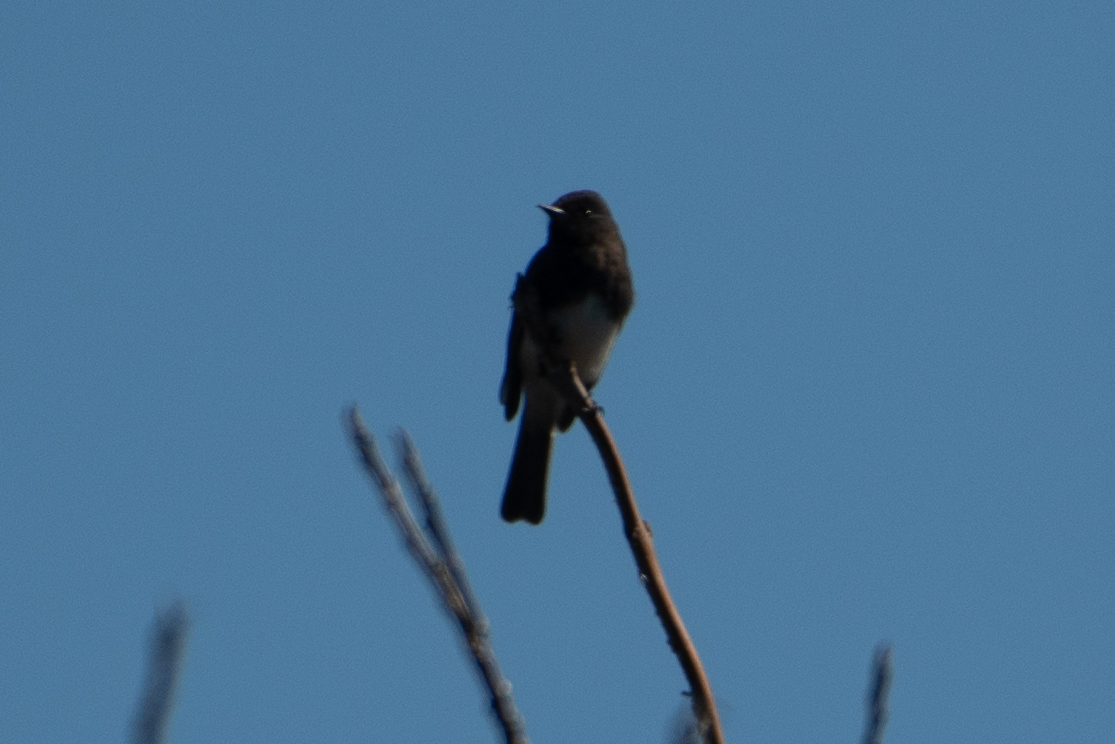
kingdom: Animalia
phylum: Chordata
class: Aves
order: Passeriformes
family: Tyrannidae
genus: Sayornis
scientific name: Sayornis nigricans
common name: Black phoebe
